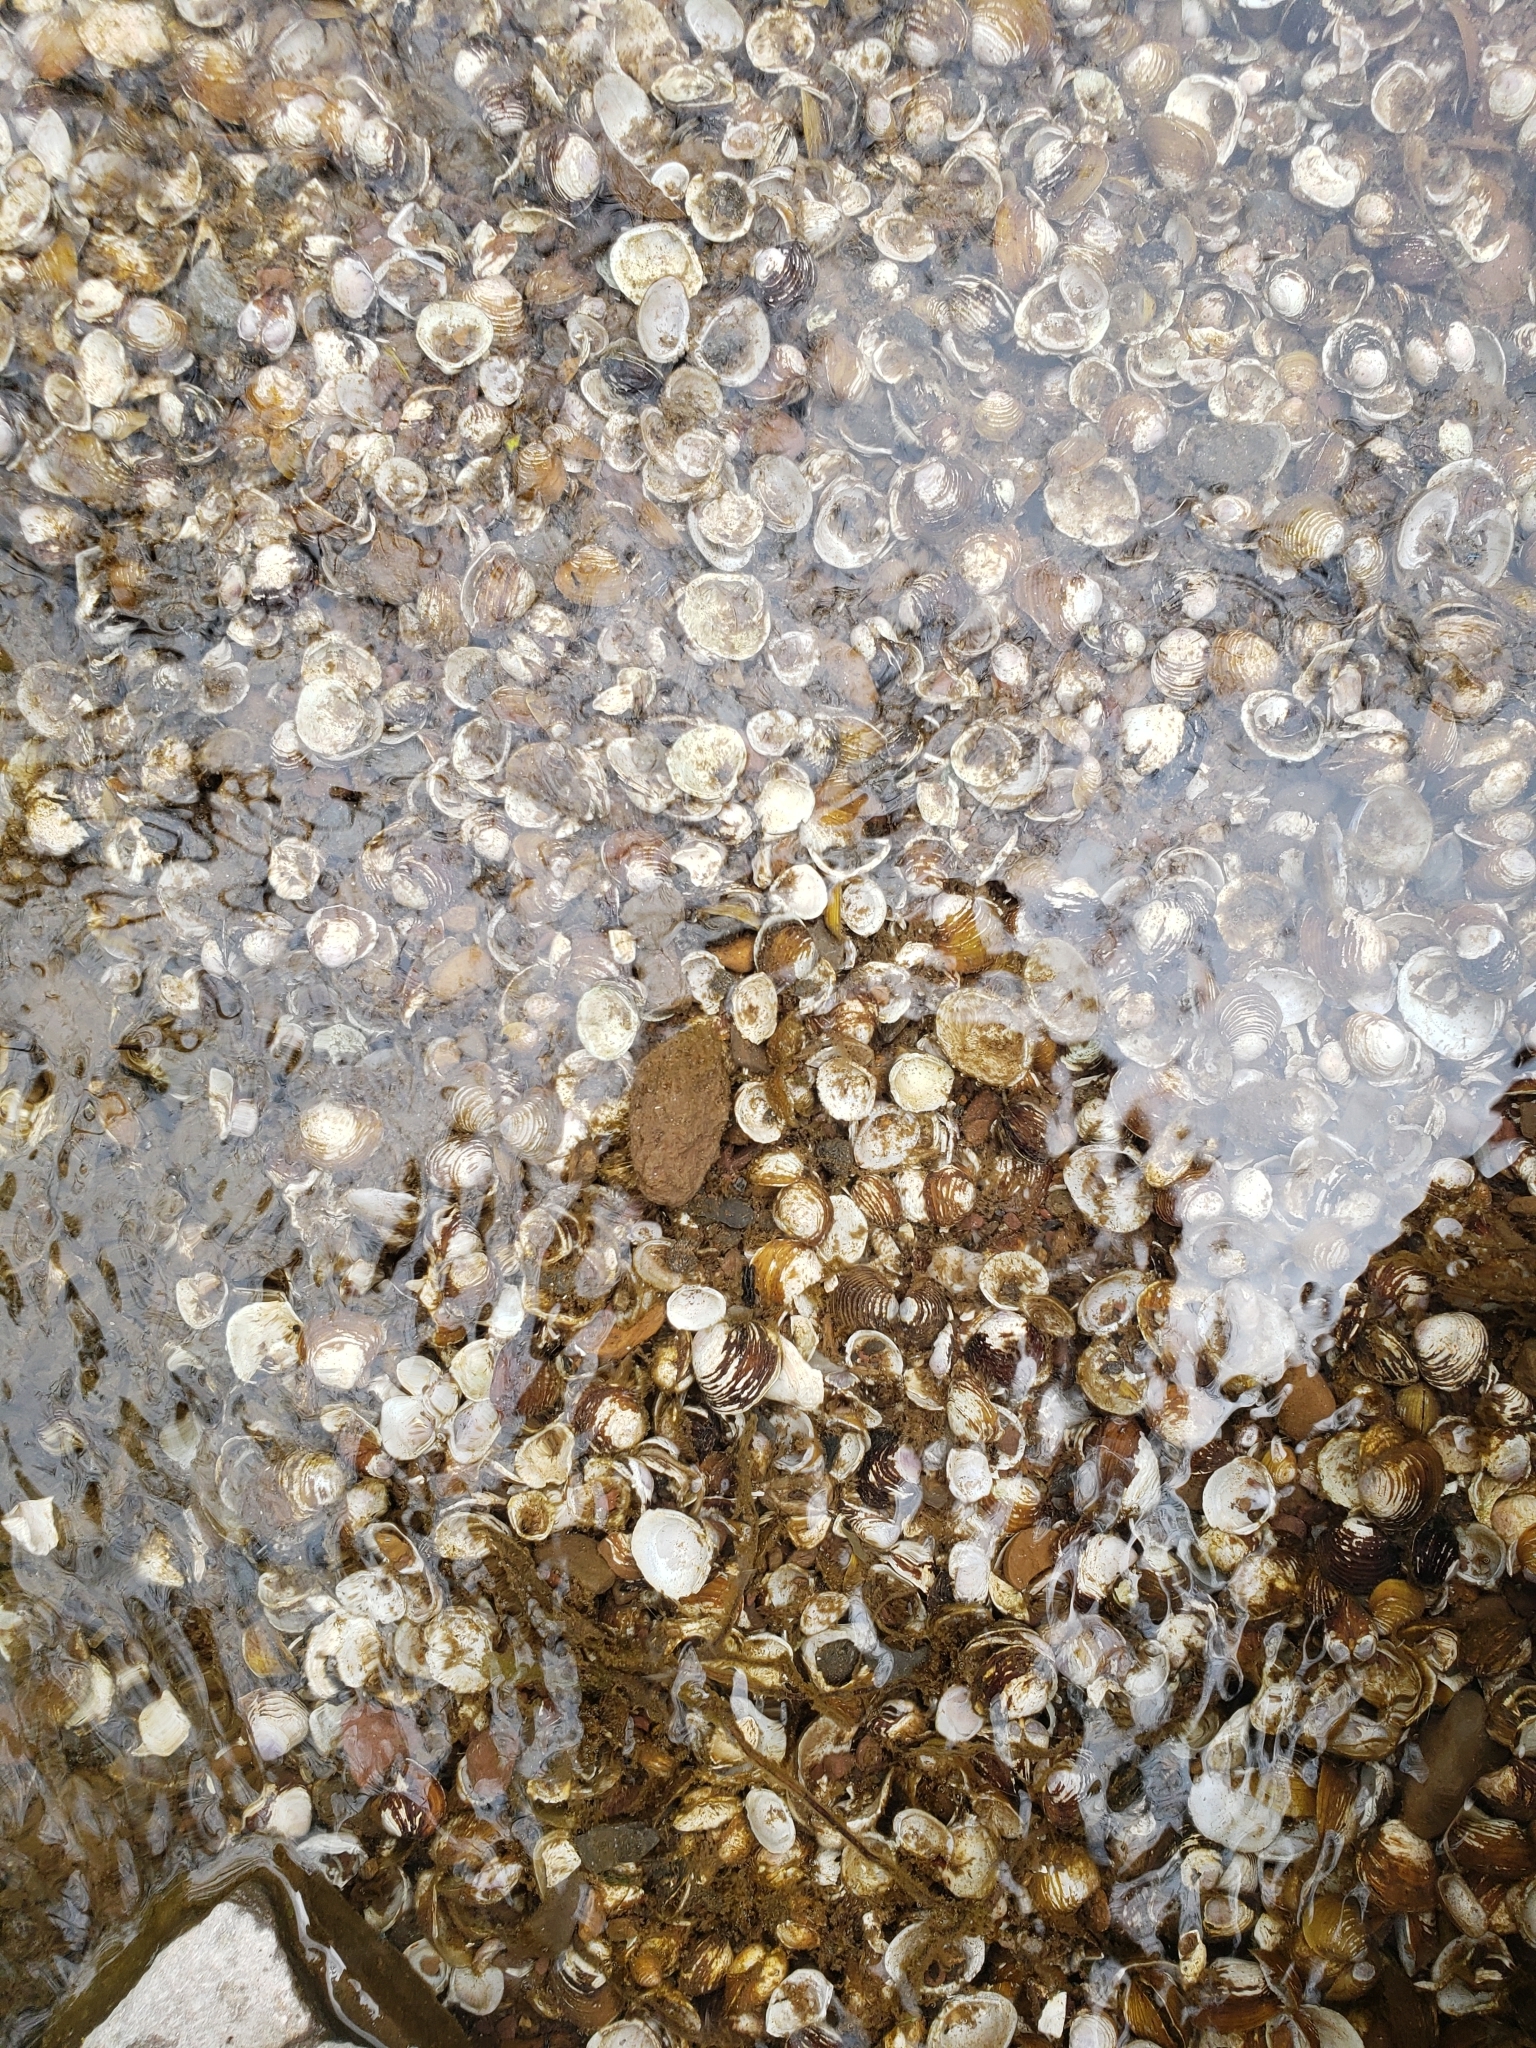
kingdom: Animalia
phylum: Mollusca
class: Bivalvia
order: Venerida
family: Cyrenidae
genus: Corbicula
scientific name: Corbicula fluminea
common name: Asian clam
